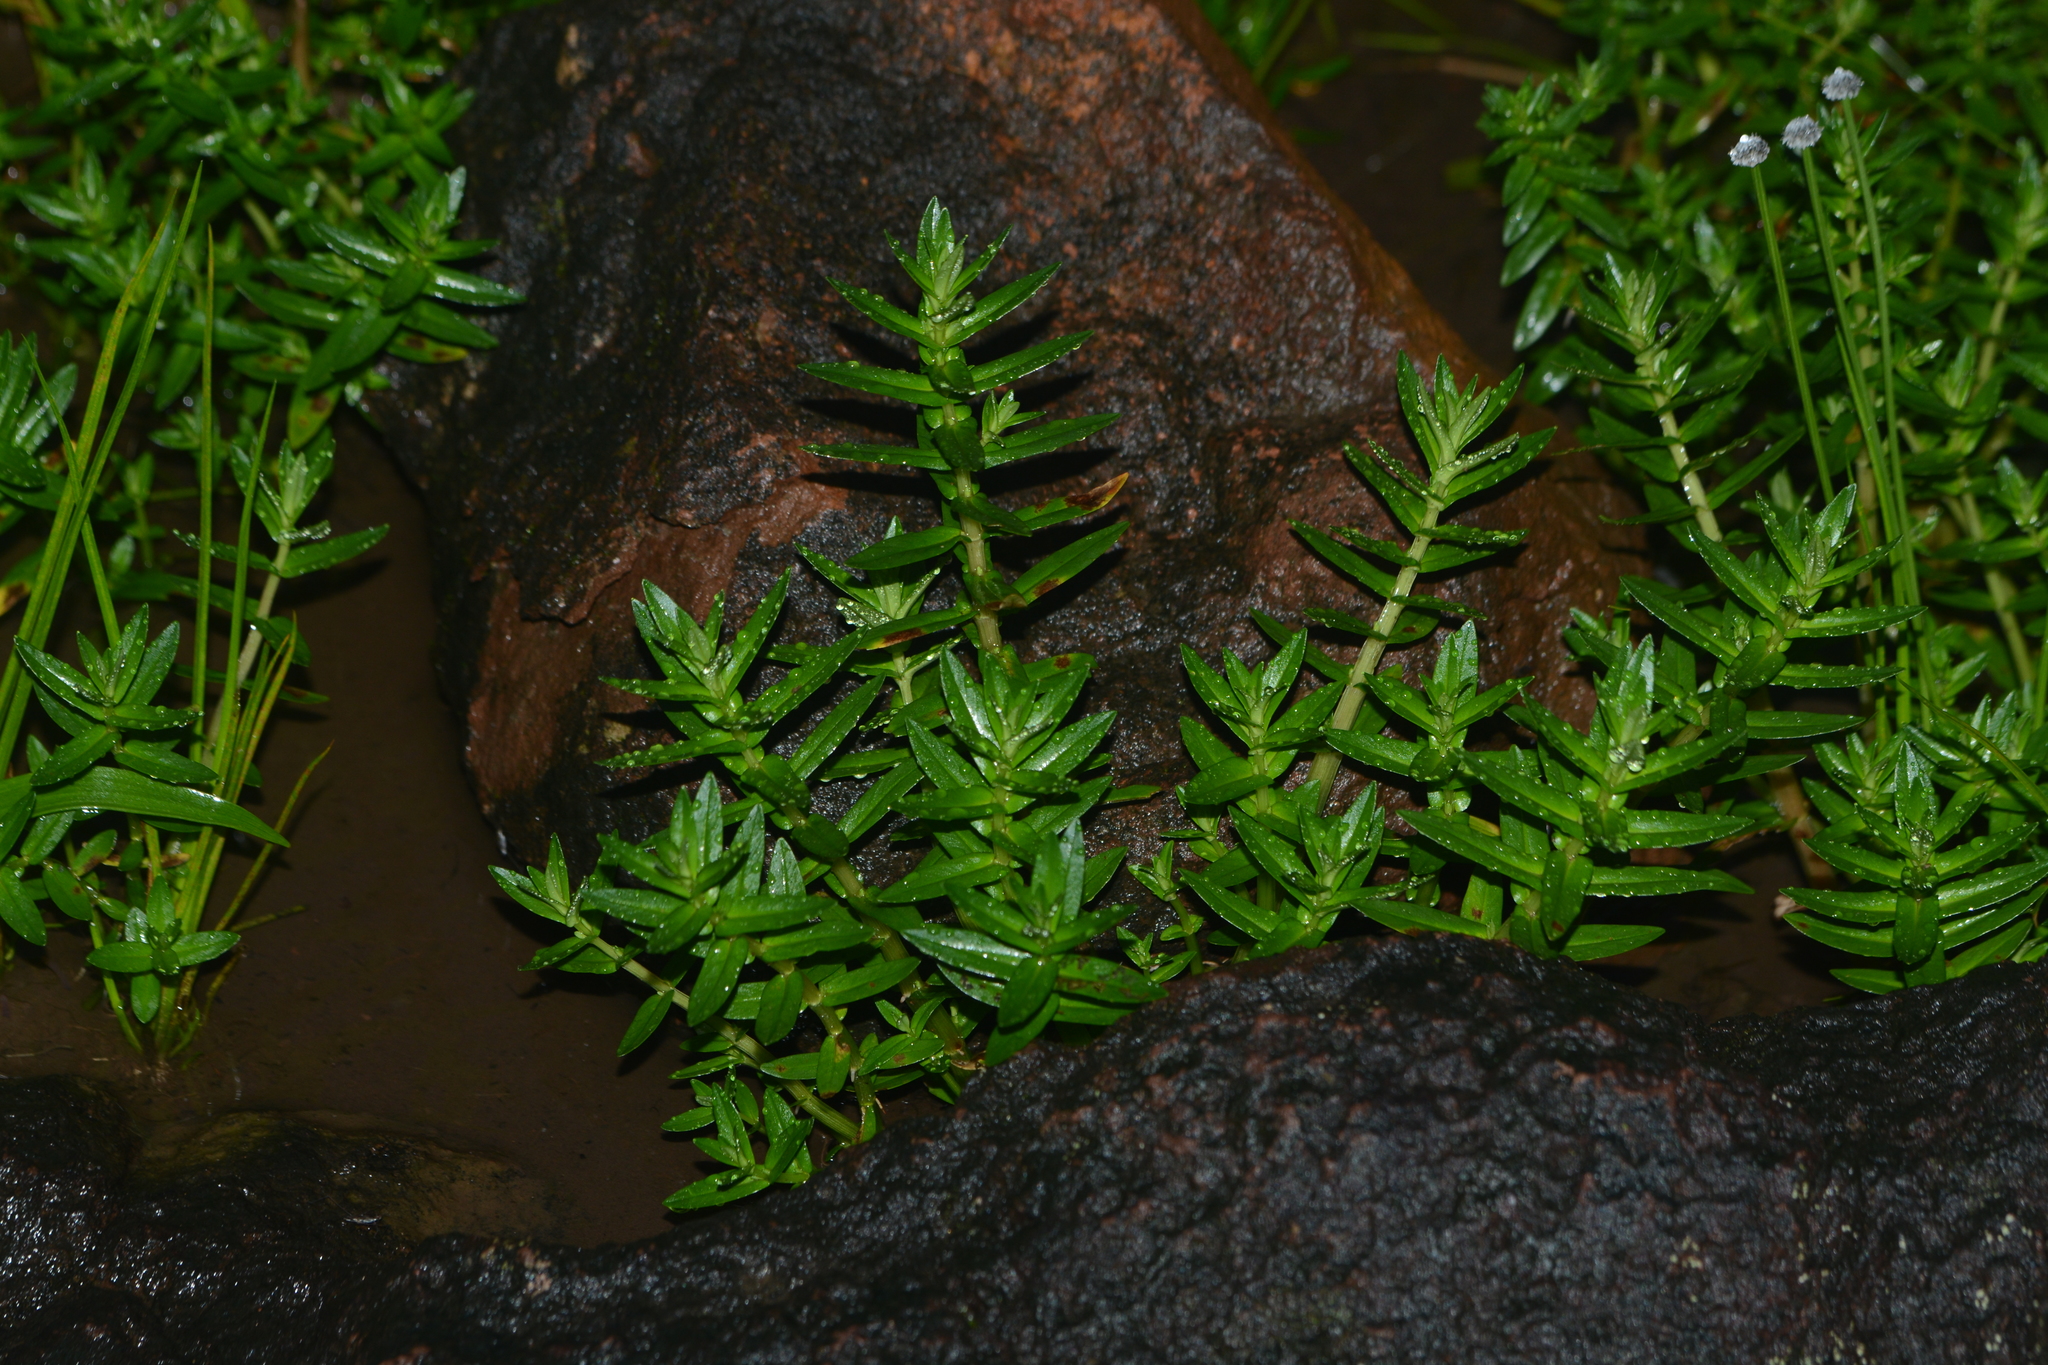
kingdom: Plantae
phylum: Tracheophyta
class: Magnoliopsida
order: Myrtales
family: Lythraceae
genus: Rotala
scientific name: Rotala malampuzhensis
